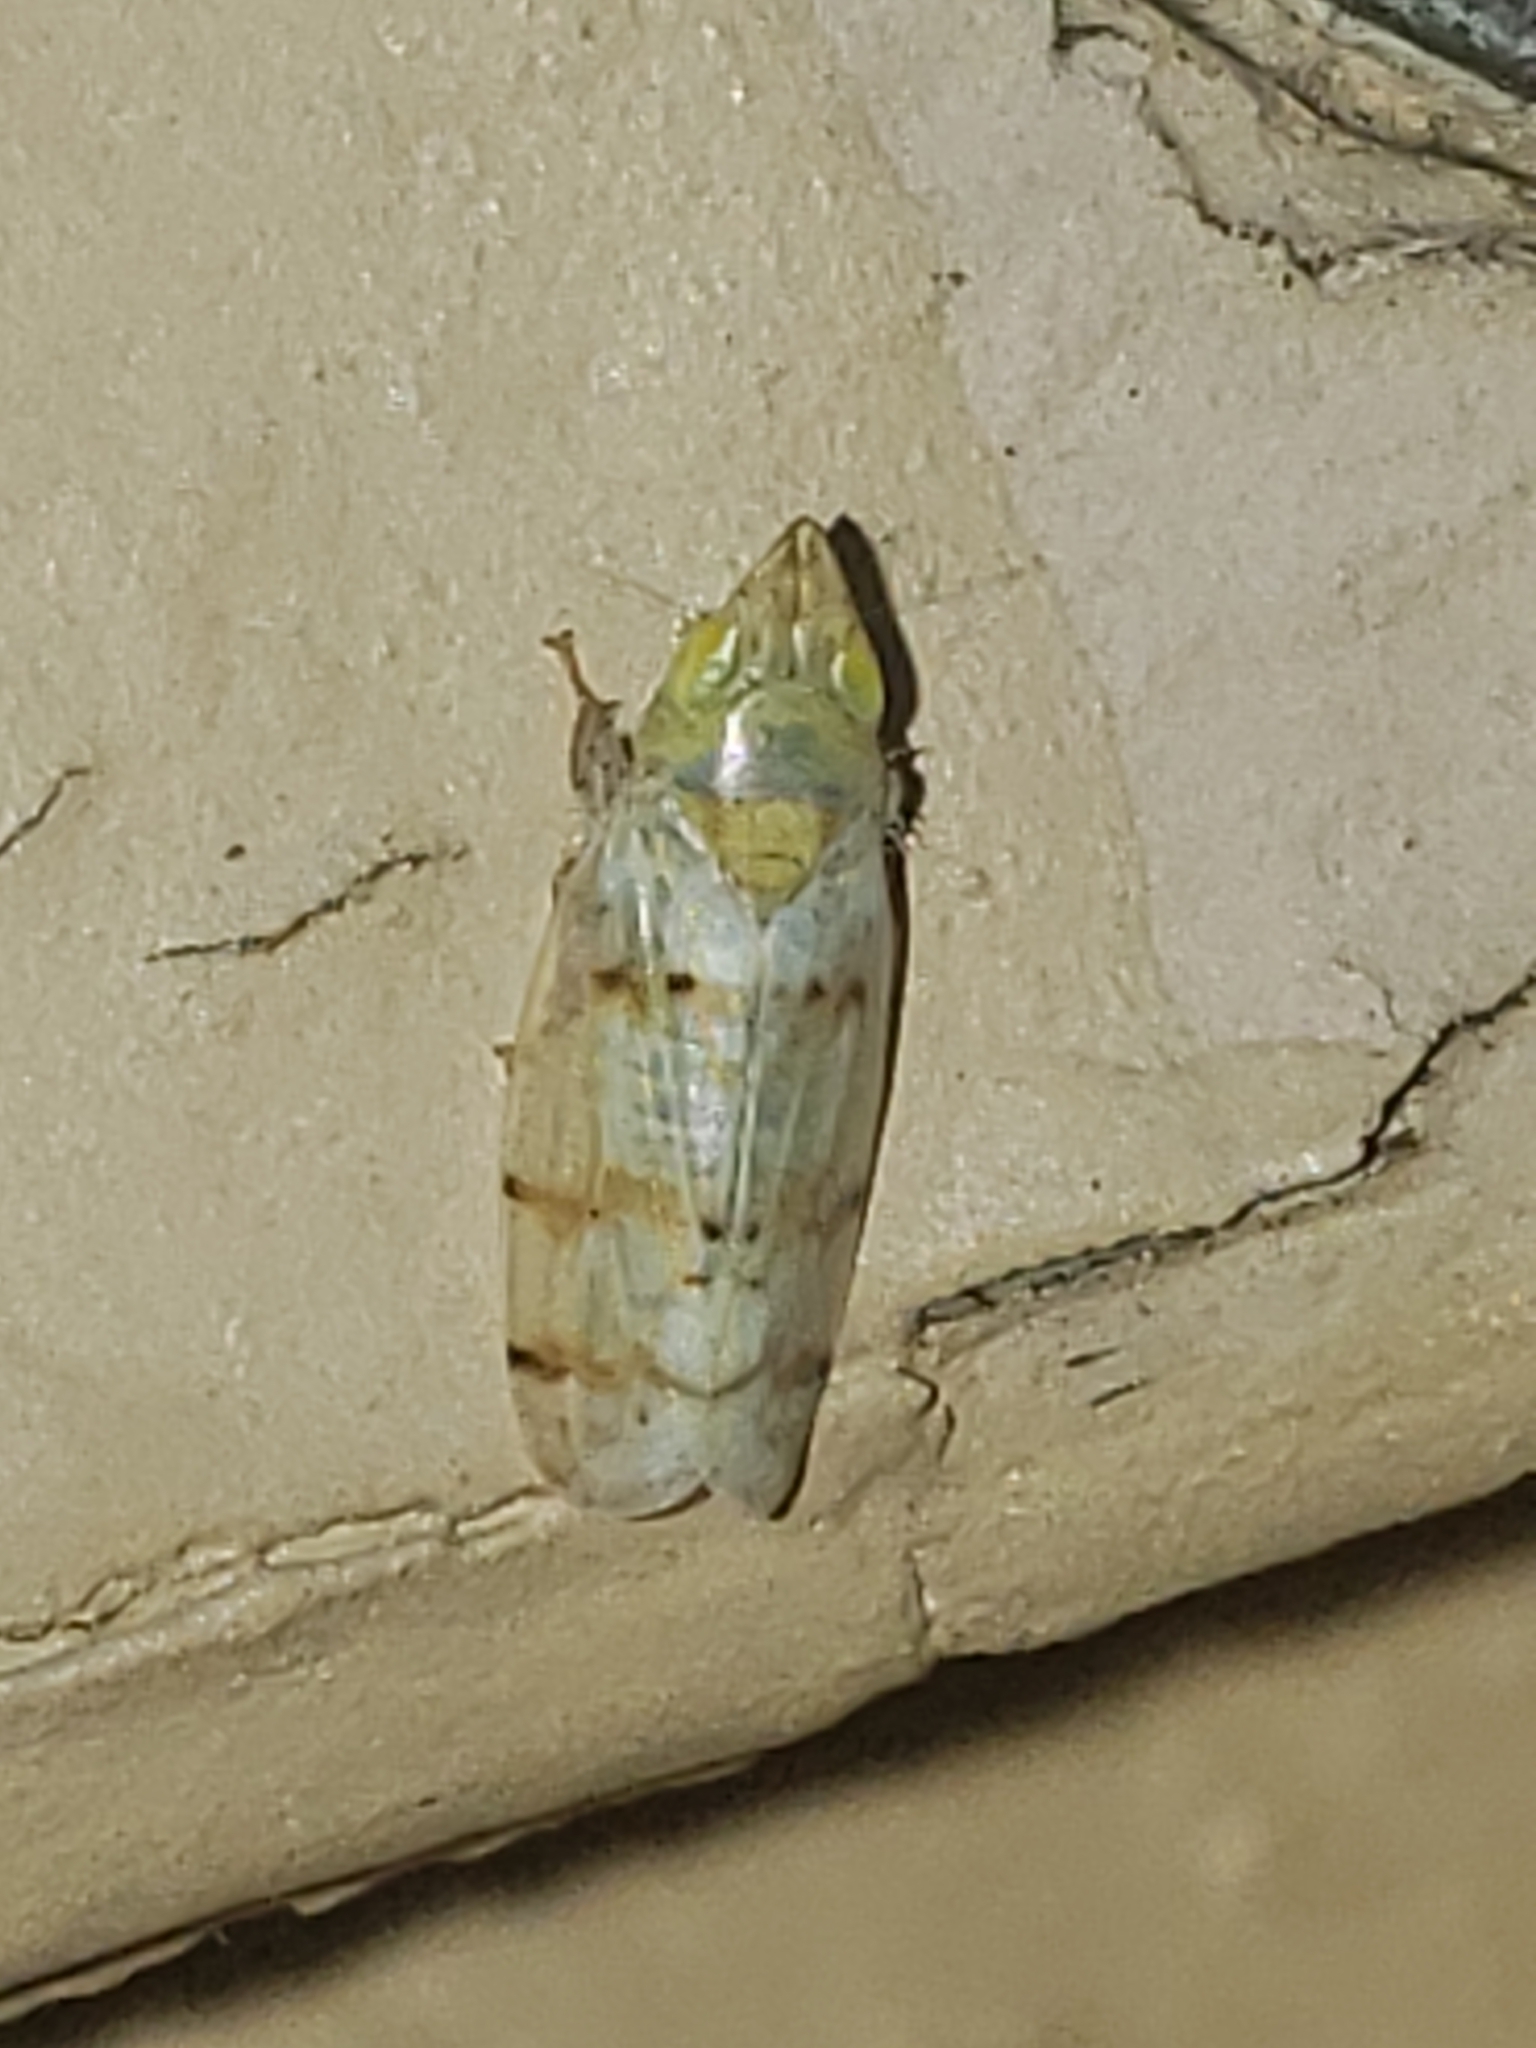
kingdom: Animalia
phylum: Arthropoda
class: Insecta
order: Hemiptera
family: Cicadellidae
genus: Japananus
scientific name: Japananus hyalinus
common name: The japanese maple leafhopper
